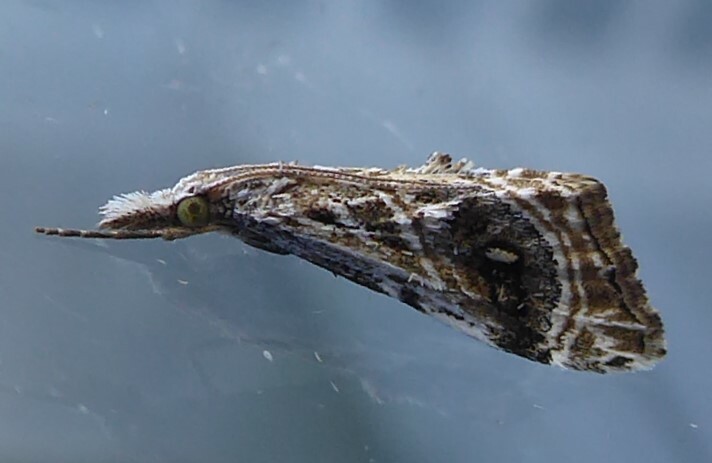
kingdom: Animalia
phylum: Arthropoda
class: Insecta
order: Lepidoptera
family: Crambidae
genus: Gadira
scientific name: Gadira acerella
